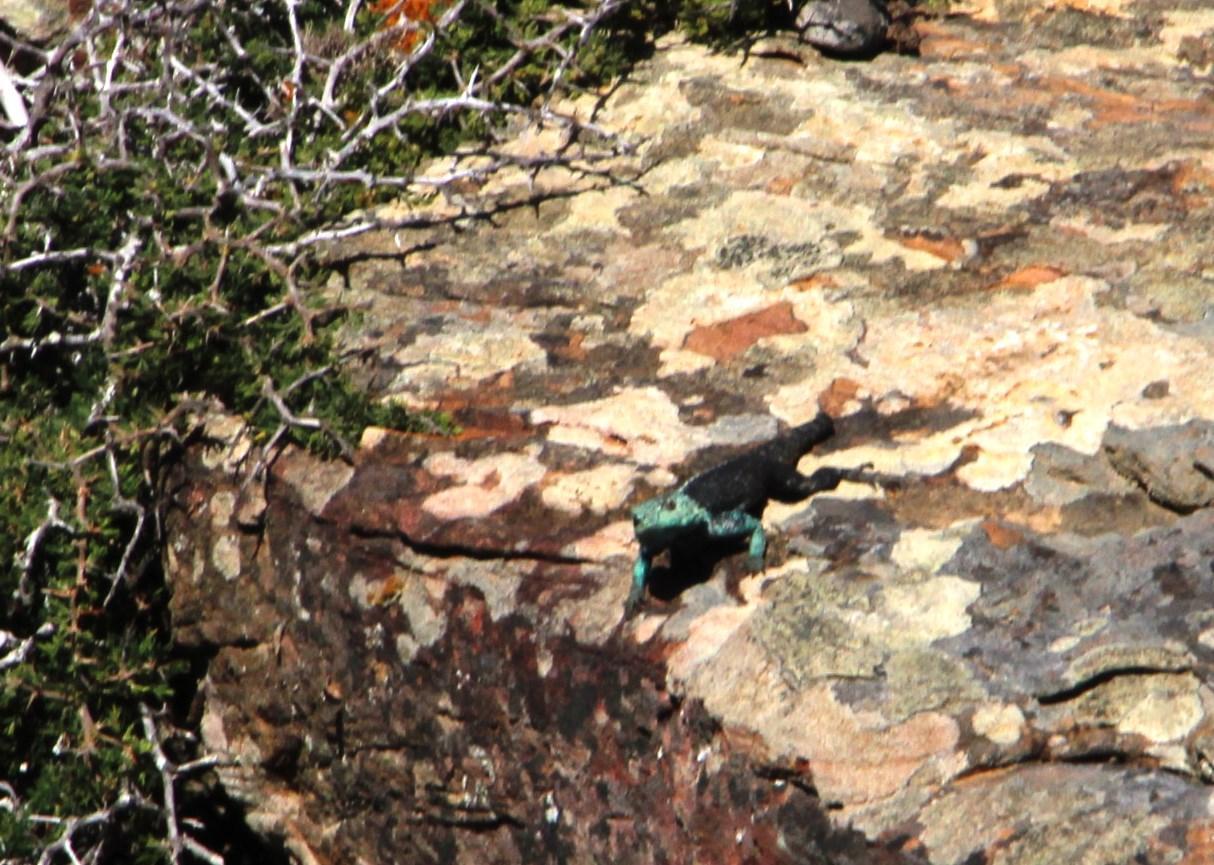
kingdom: Animalia
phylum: Chordata
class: Squamata
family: Agamidae
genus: Agama
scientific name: Agama atra
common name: Southern african rock agama
